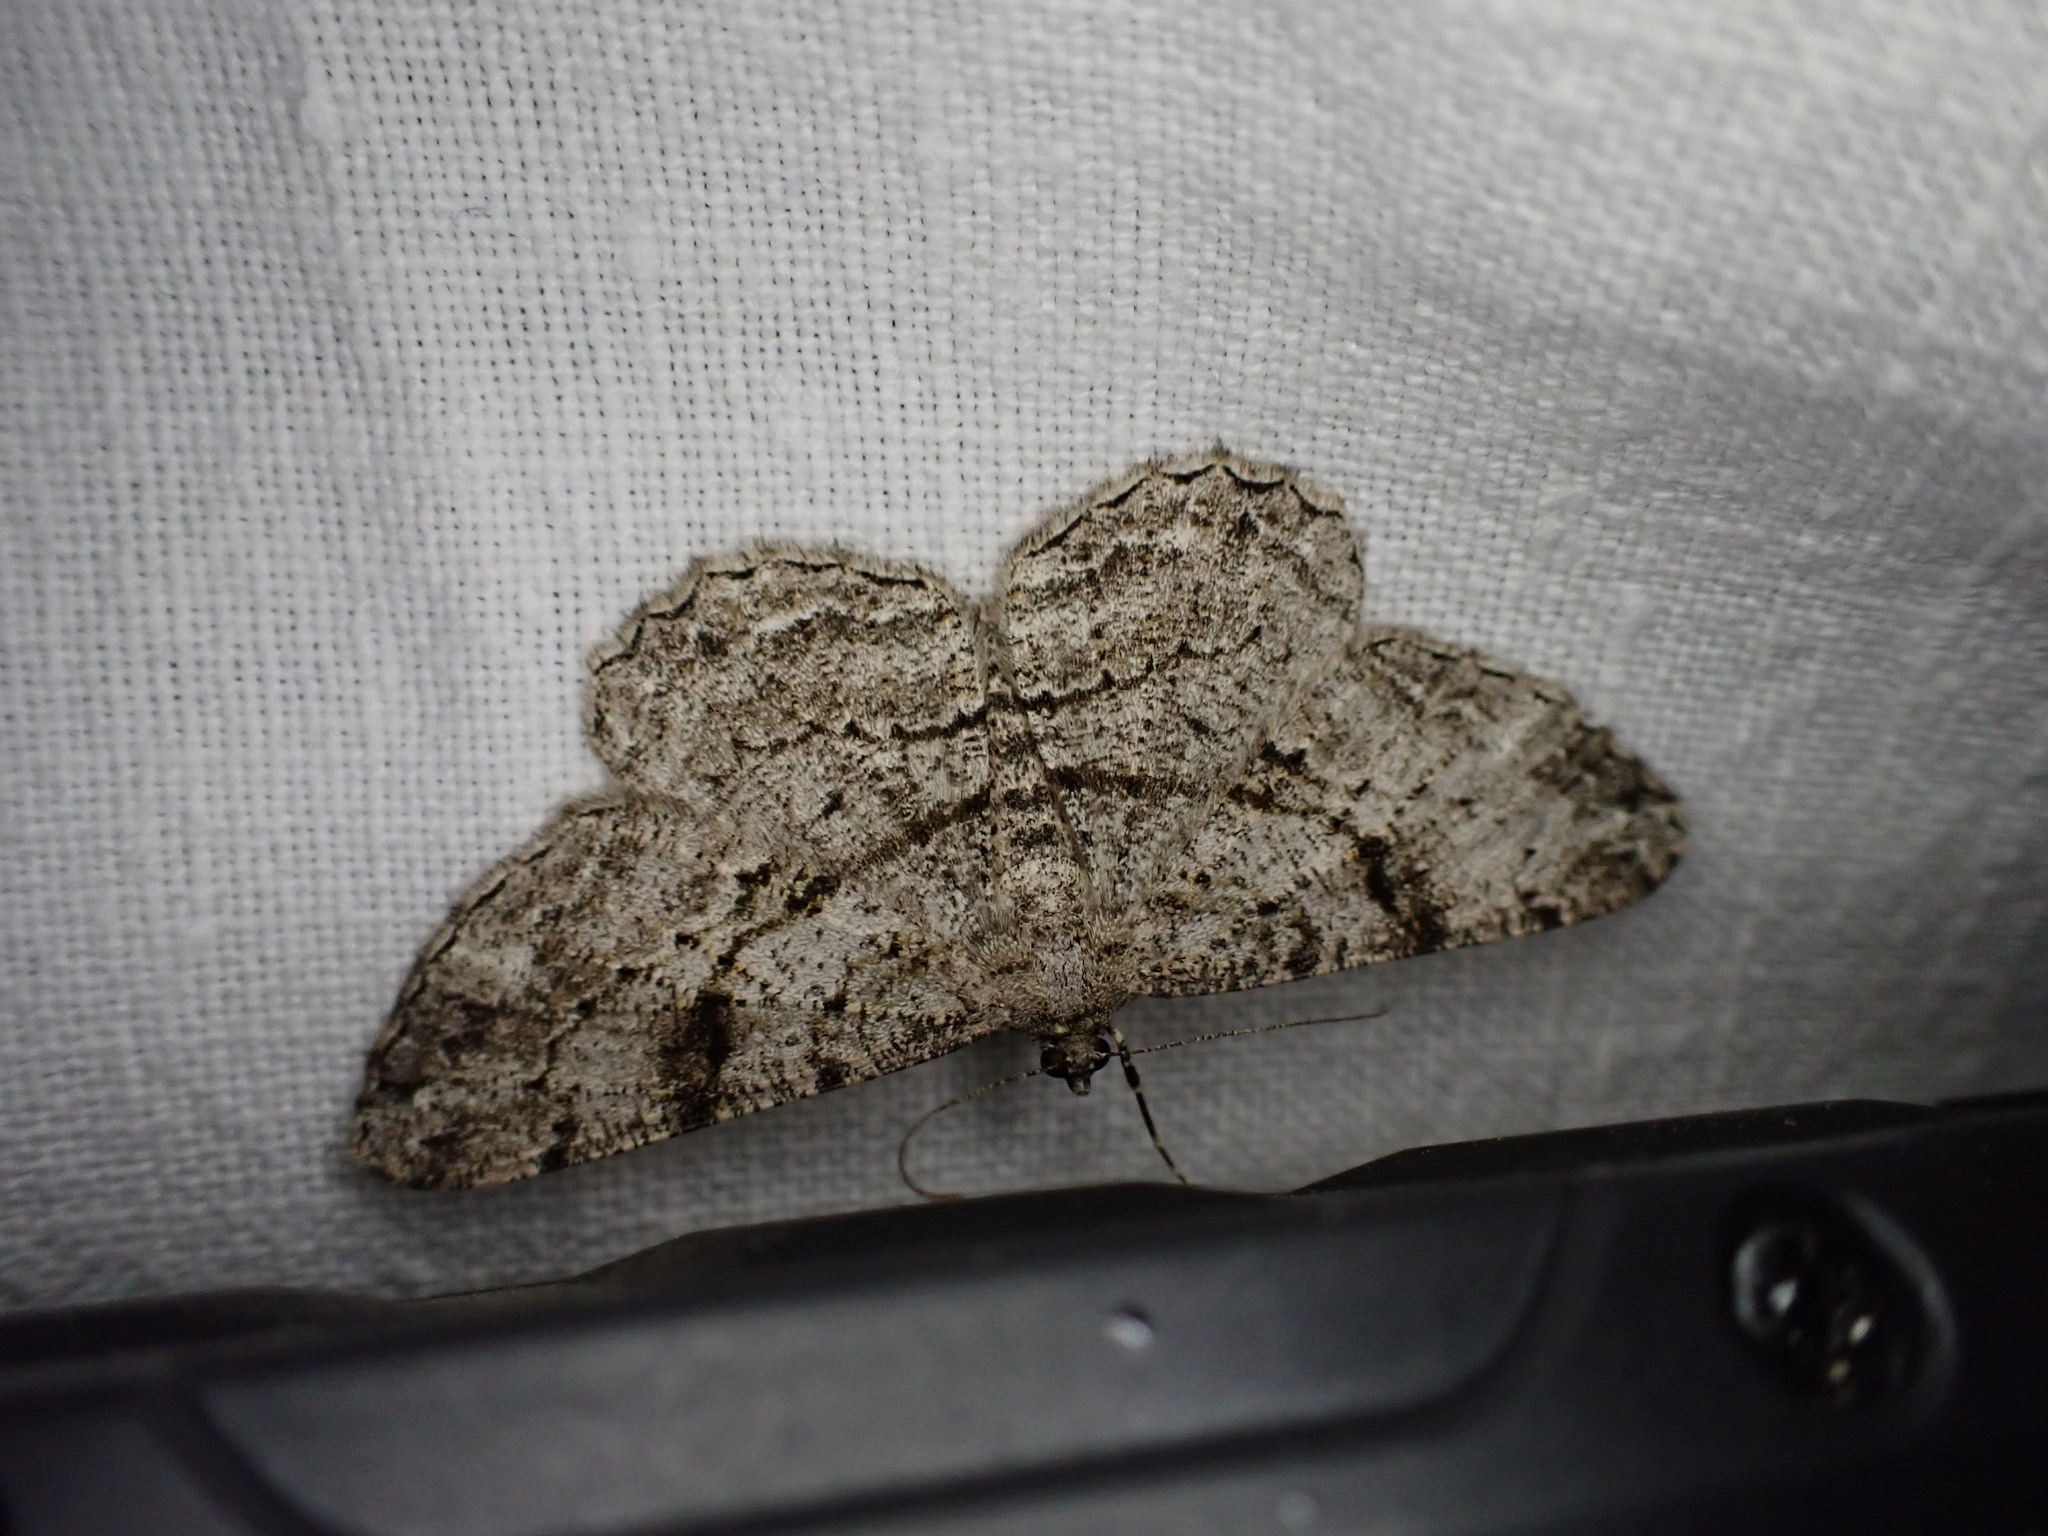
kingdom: Animalia
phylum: Arthropoda
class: Insecta
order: Lepidoptera
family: Geometridae
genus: Peribatodes
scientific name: Peribatodes rhomboidaria
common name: Willow beauty
